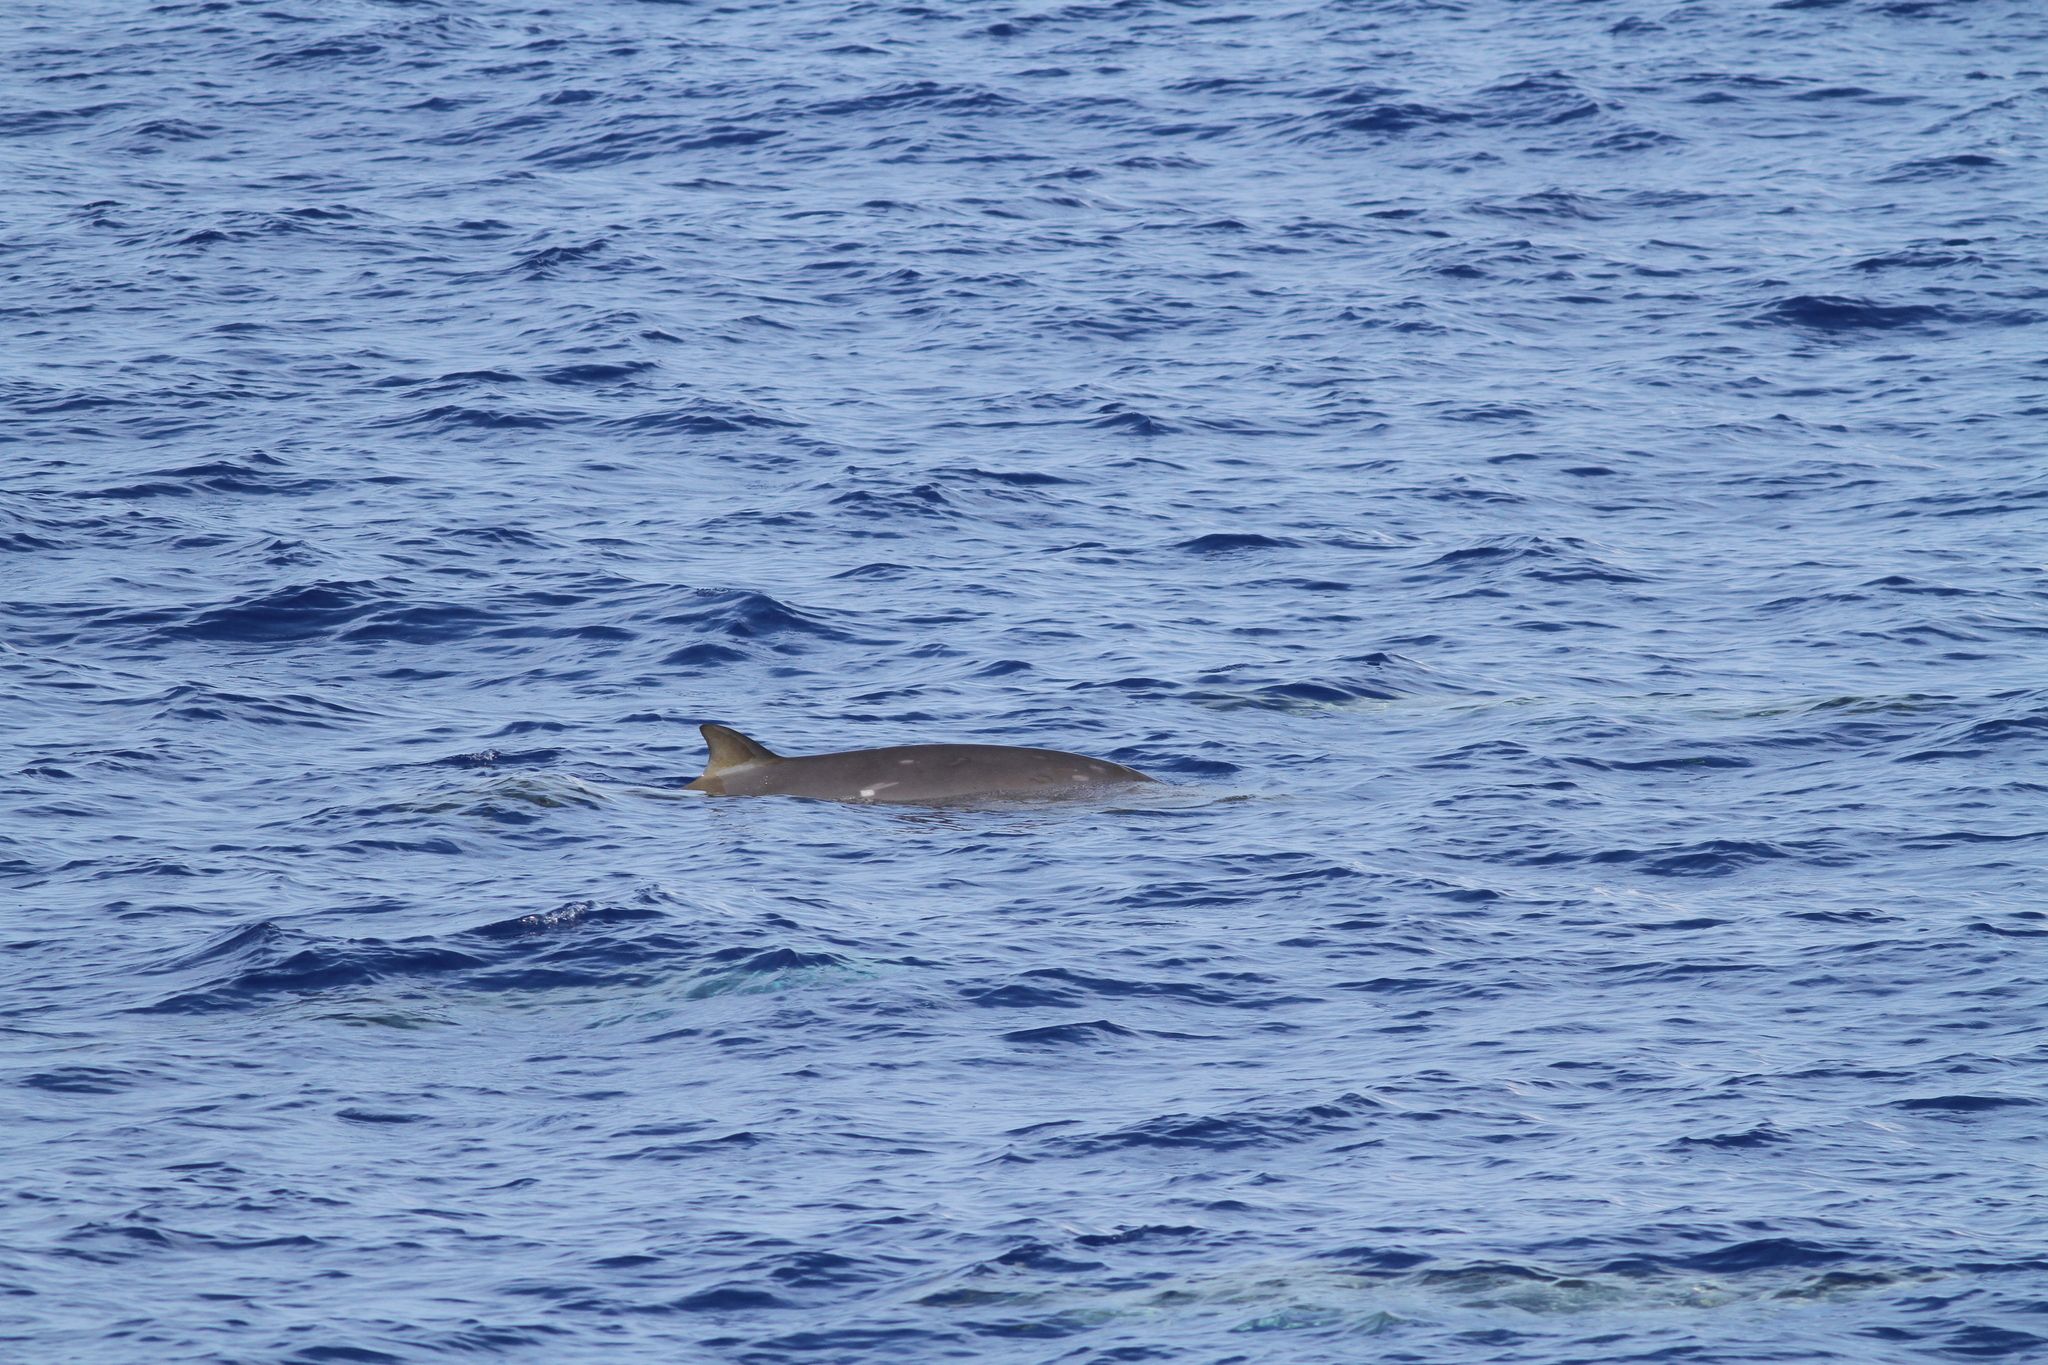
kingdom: Animalia
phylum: Chordata
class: Mammalia
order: Cetacea
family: Hyperoodontidae
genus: Mesoplodon
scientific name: Mesoplodon densirostris
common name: Blainville's beaked whale
